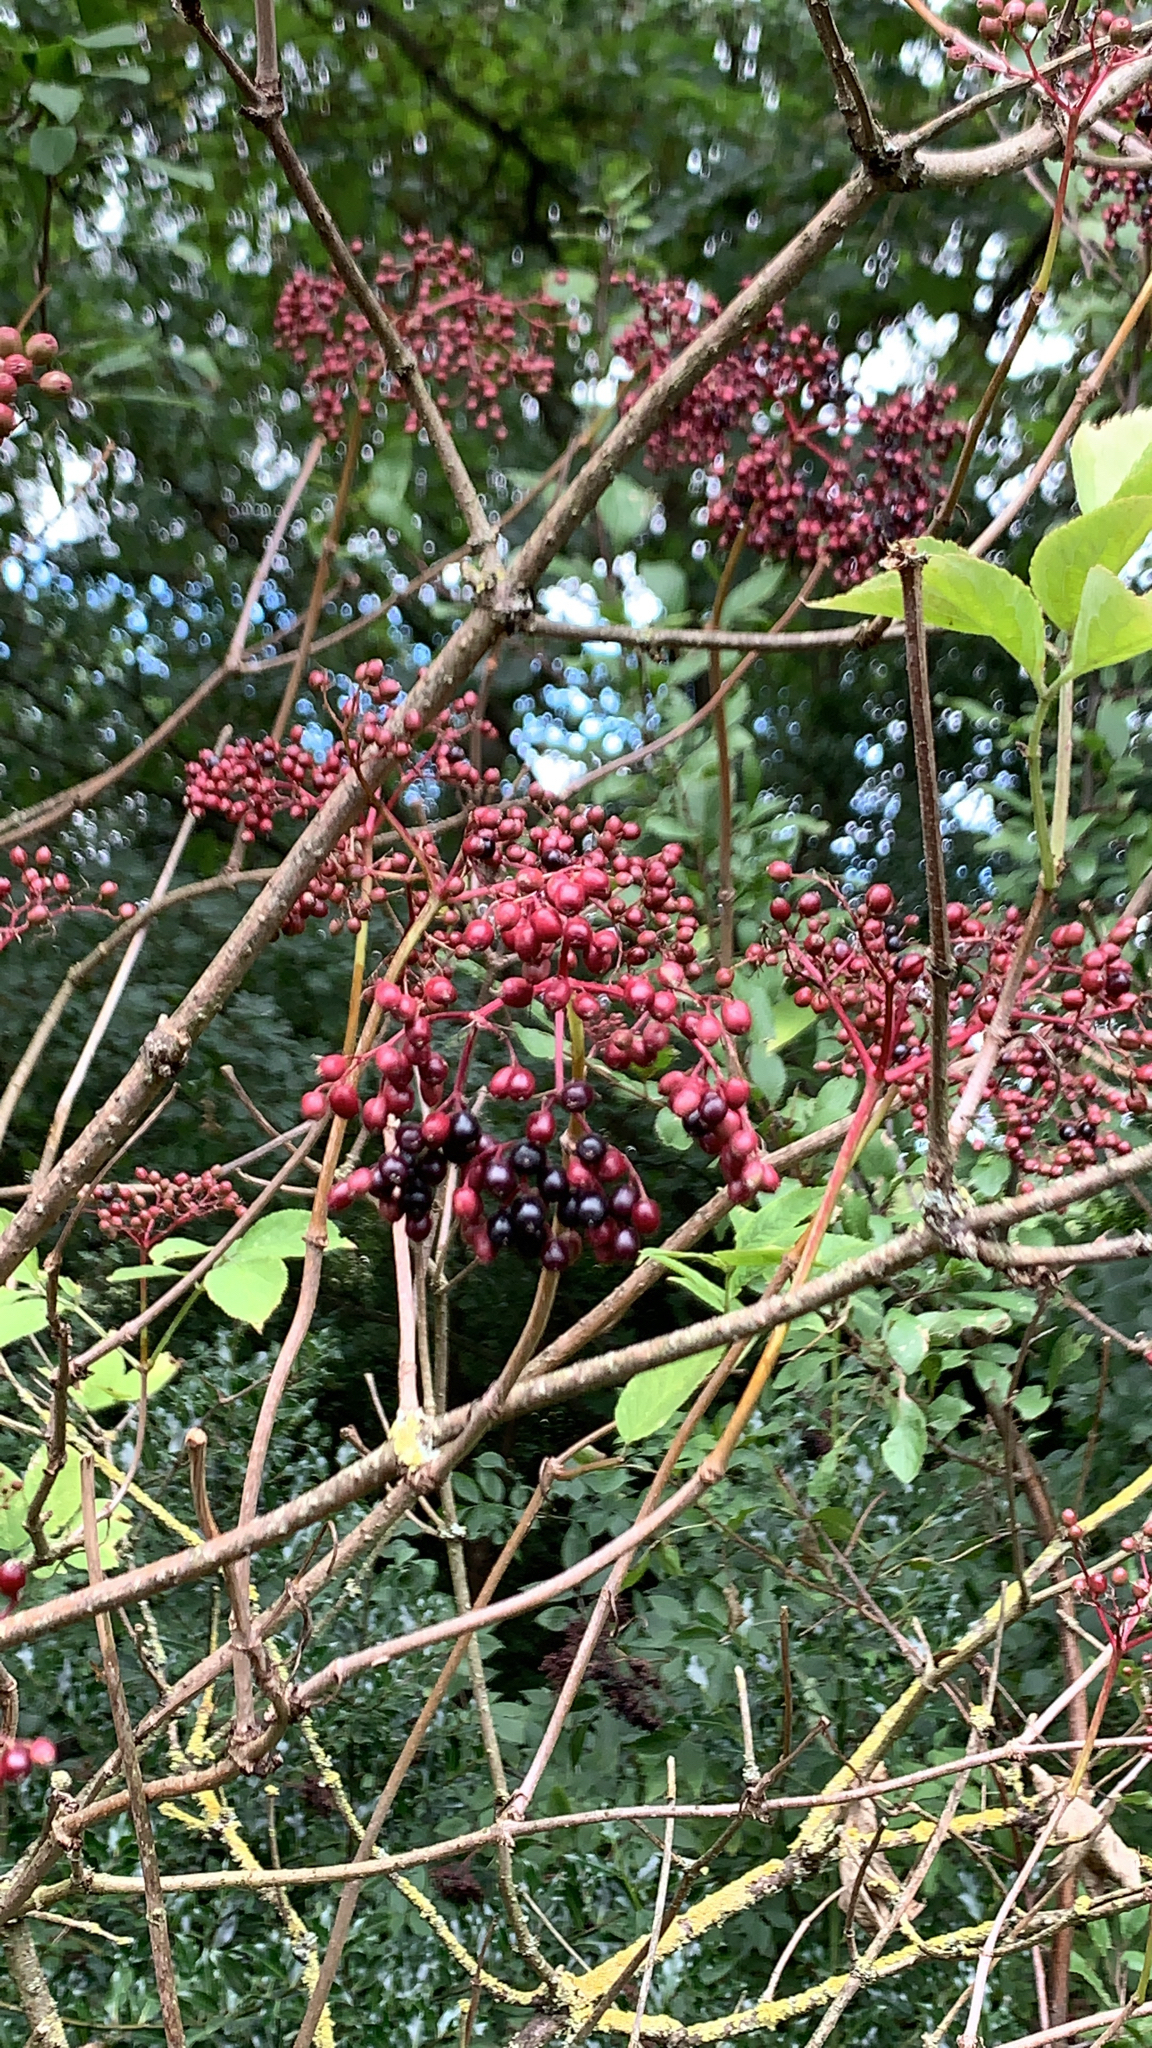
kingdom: Plantae
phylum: Tracheophyta
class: Magnoliopsida
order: Dipsacales
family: Viburnaceae
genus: Sambucus
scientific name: Sambucus nigra
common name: Elder
